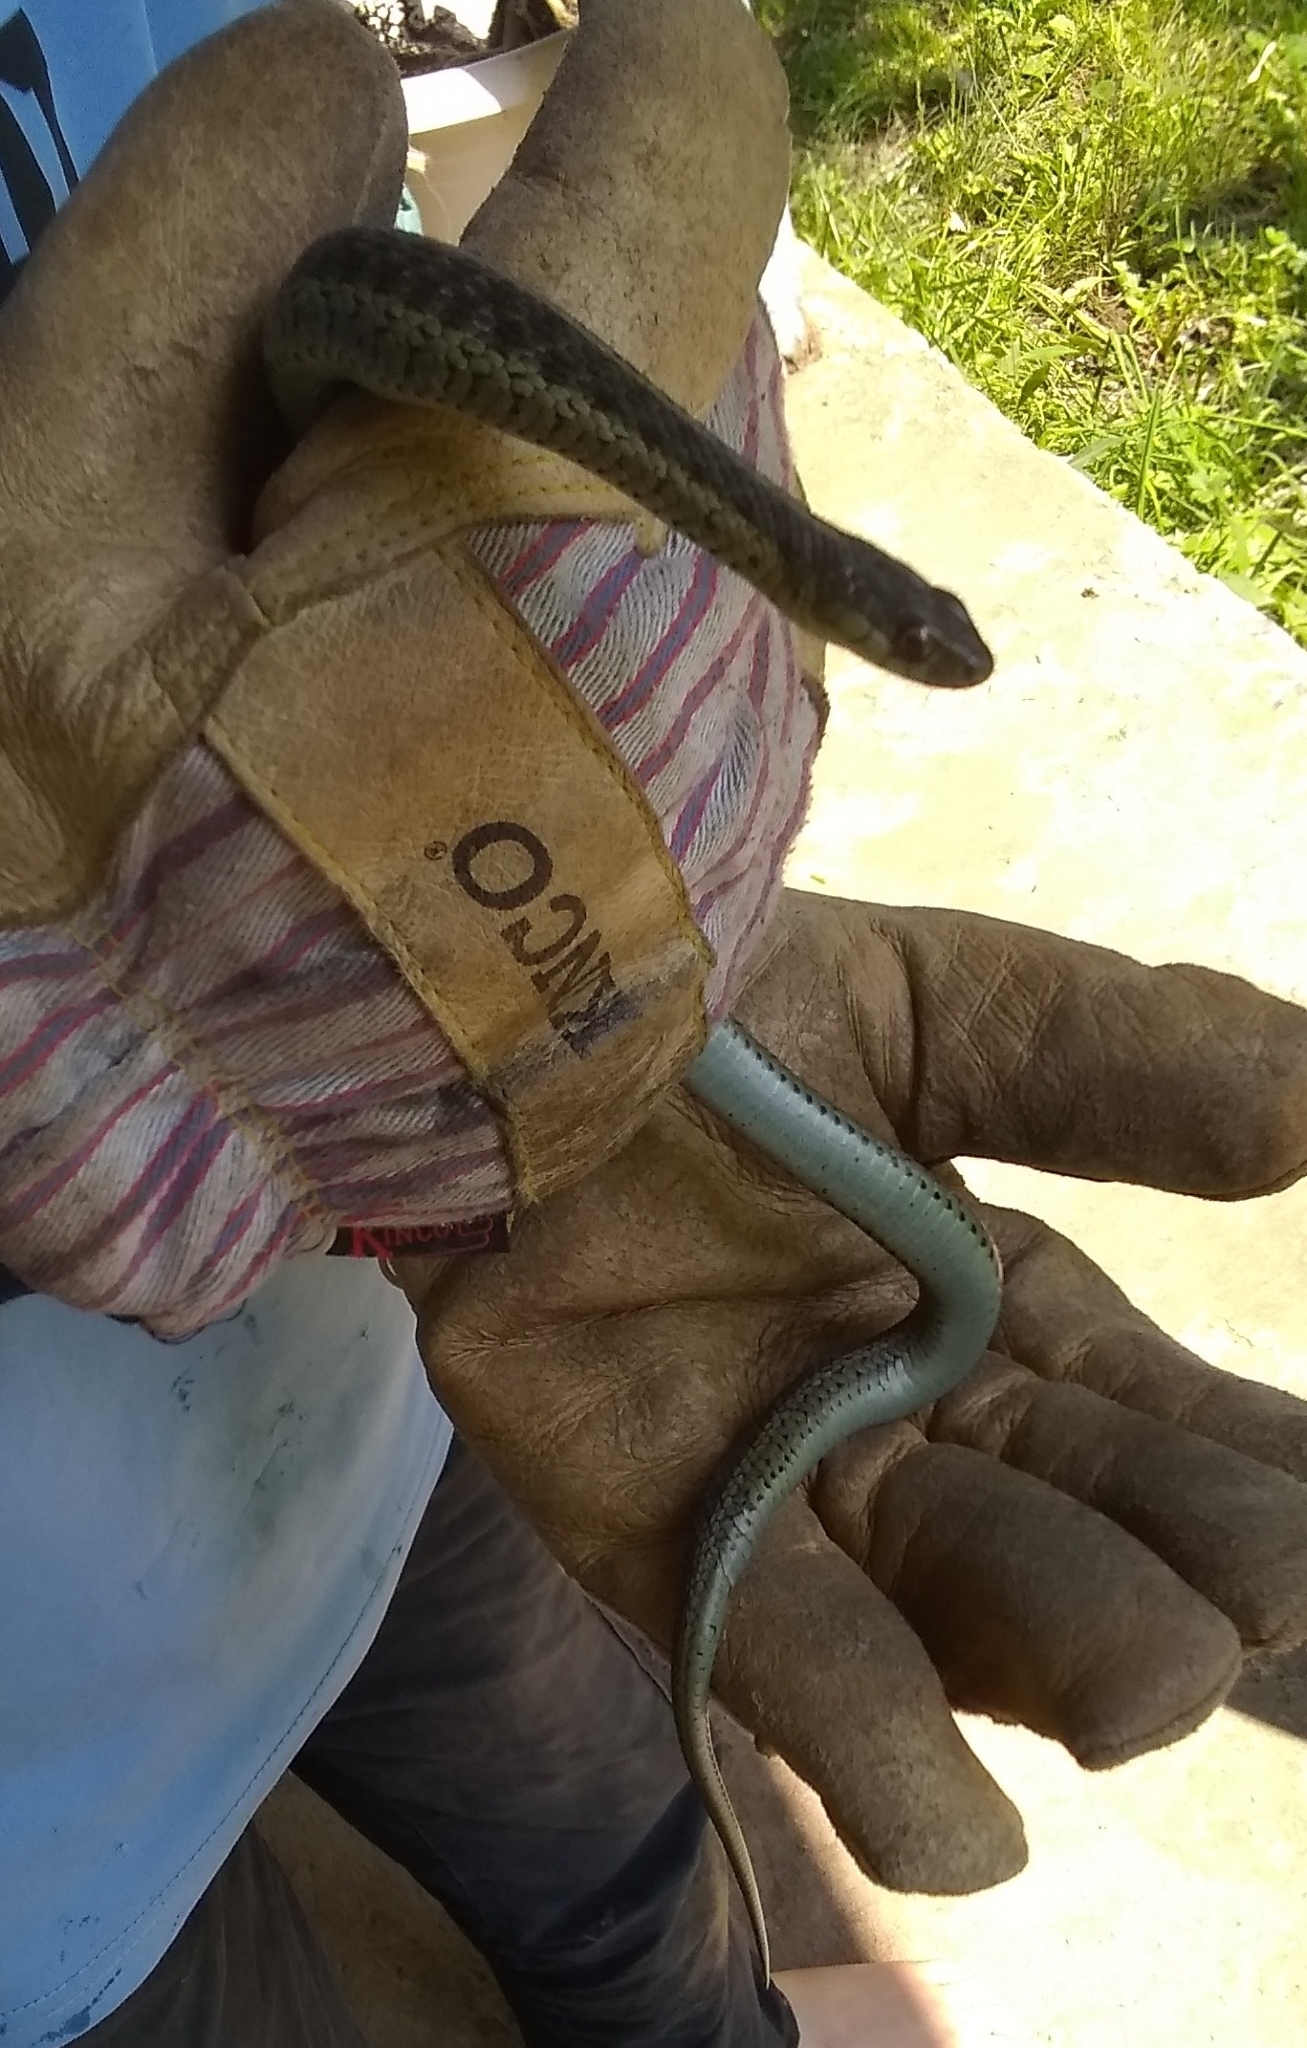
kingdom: Animalia
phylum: Chordata
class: Squamata
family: Colubridae
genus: Thamnophis
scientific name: Thamnophis sirtalis
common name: Common garter snake
